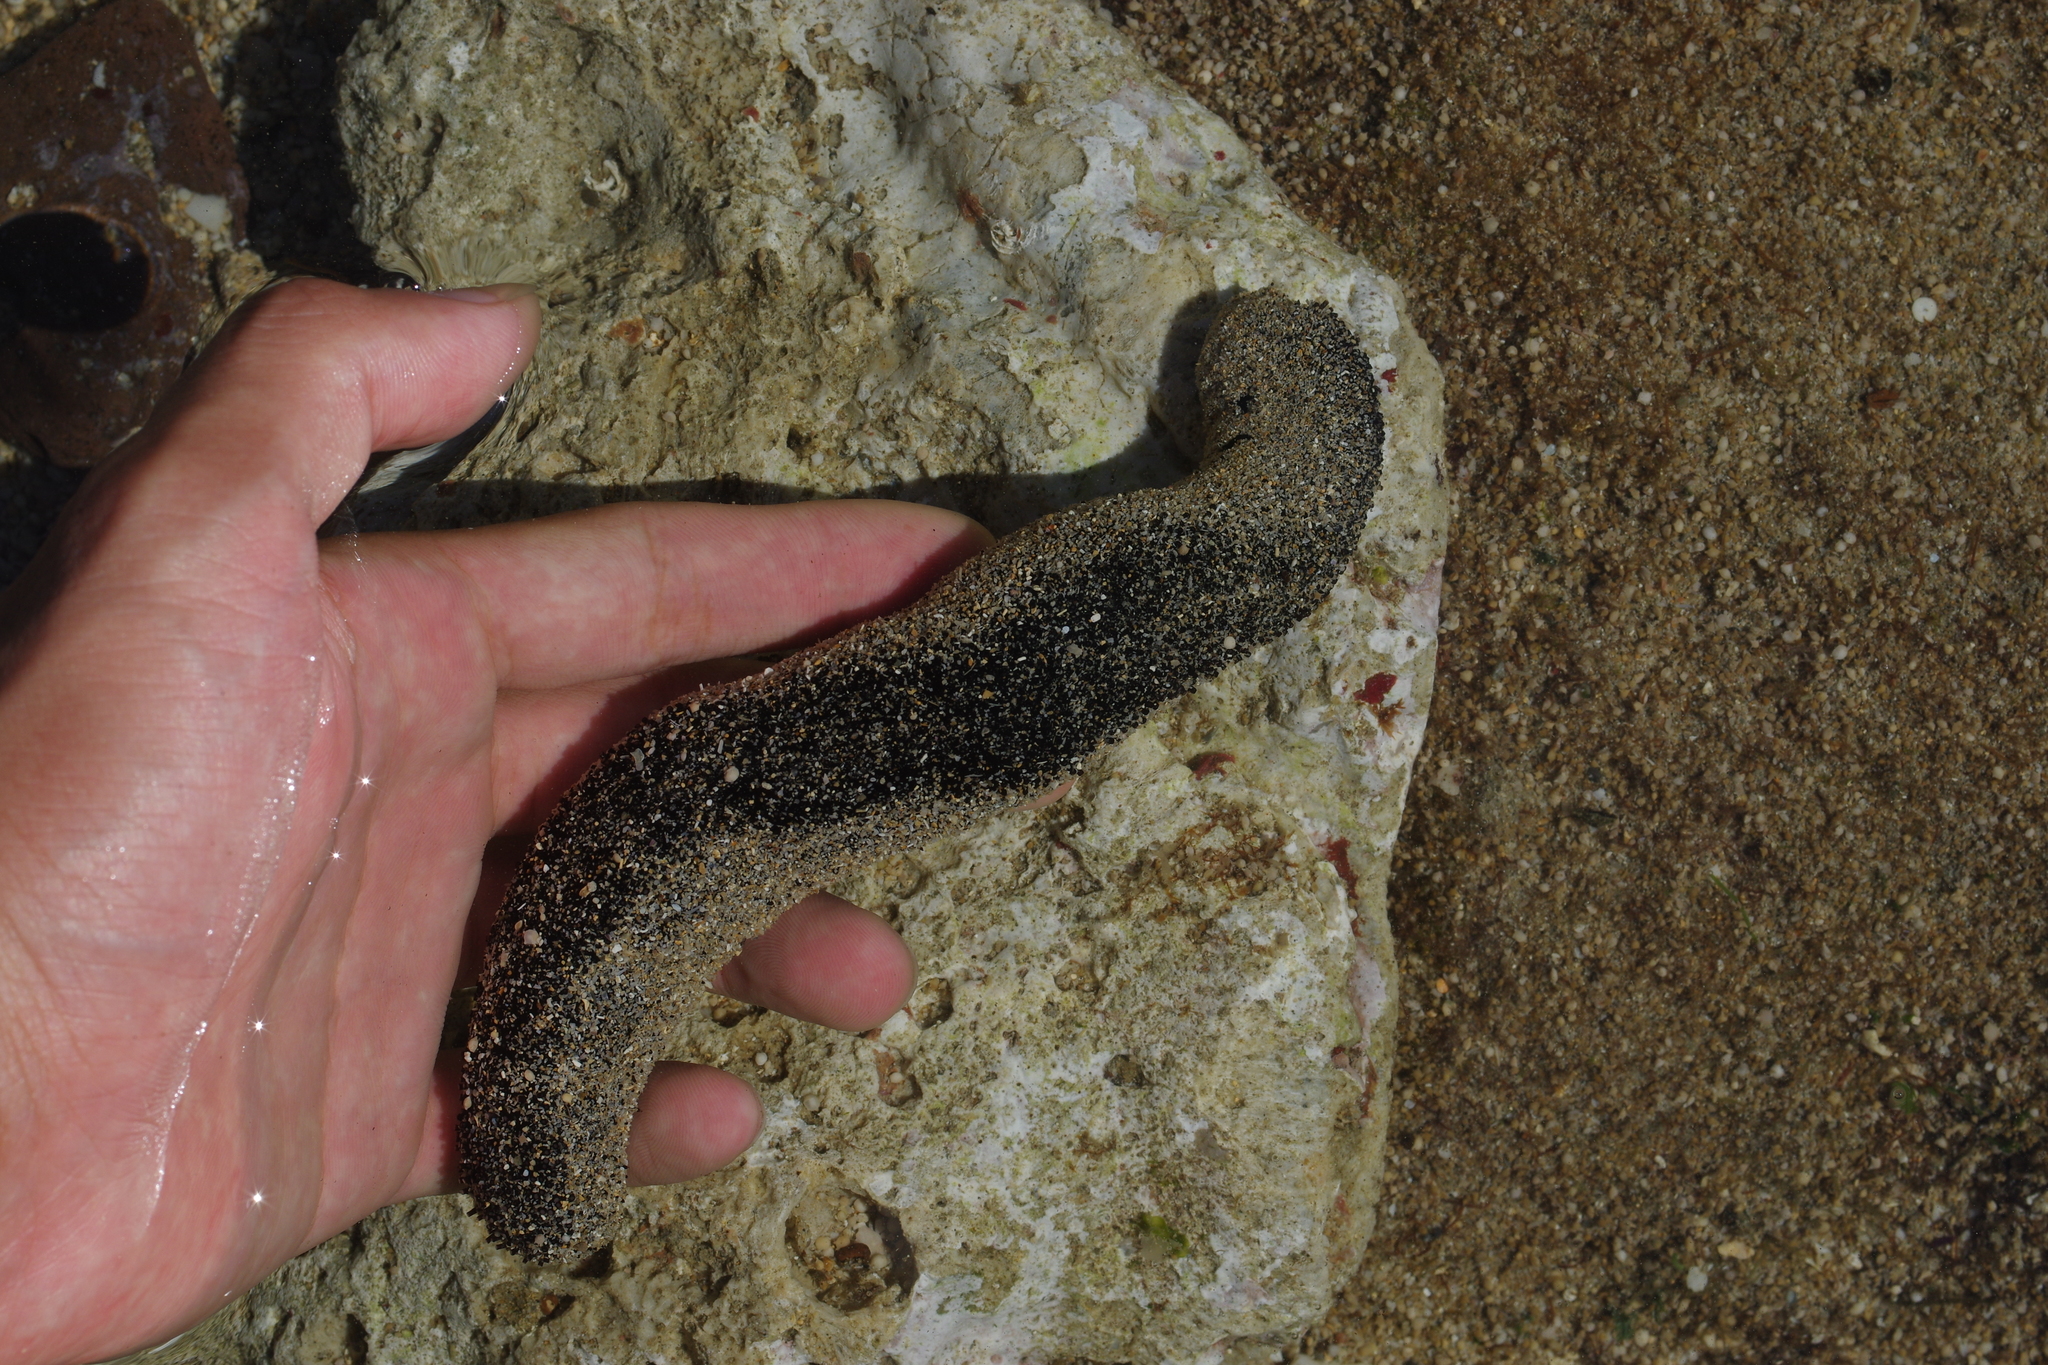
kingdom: Animalia
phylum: Echinodermata
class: Holothuroidea
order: Holothuriida
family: Holothuriidae
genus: Holothuria
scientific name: Holothuria atra
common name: Lollyfish
